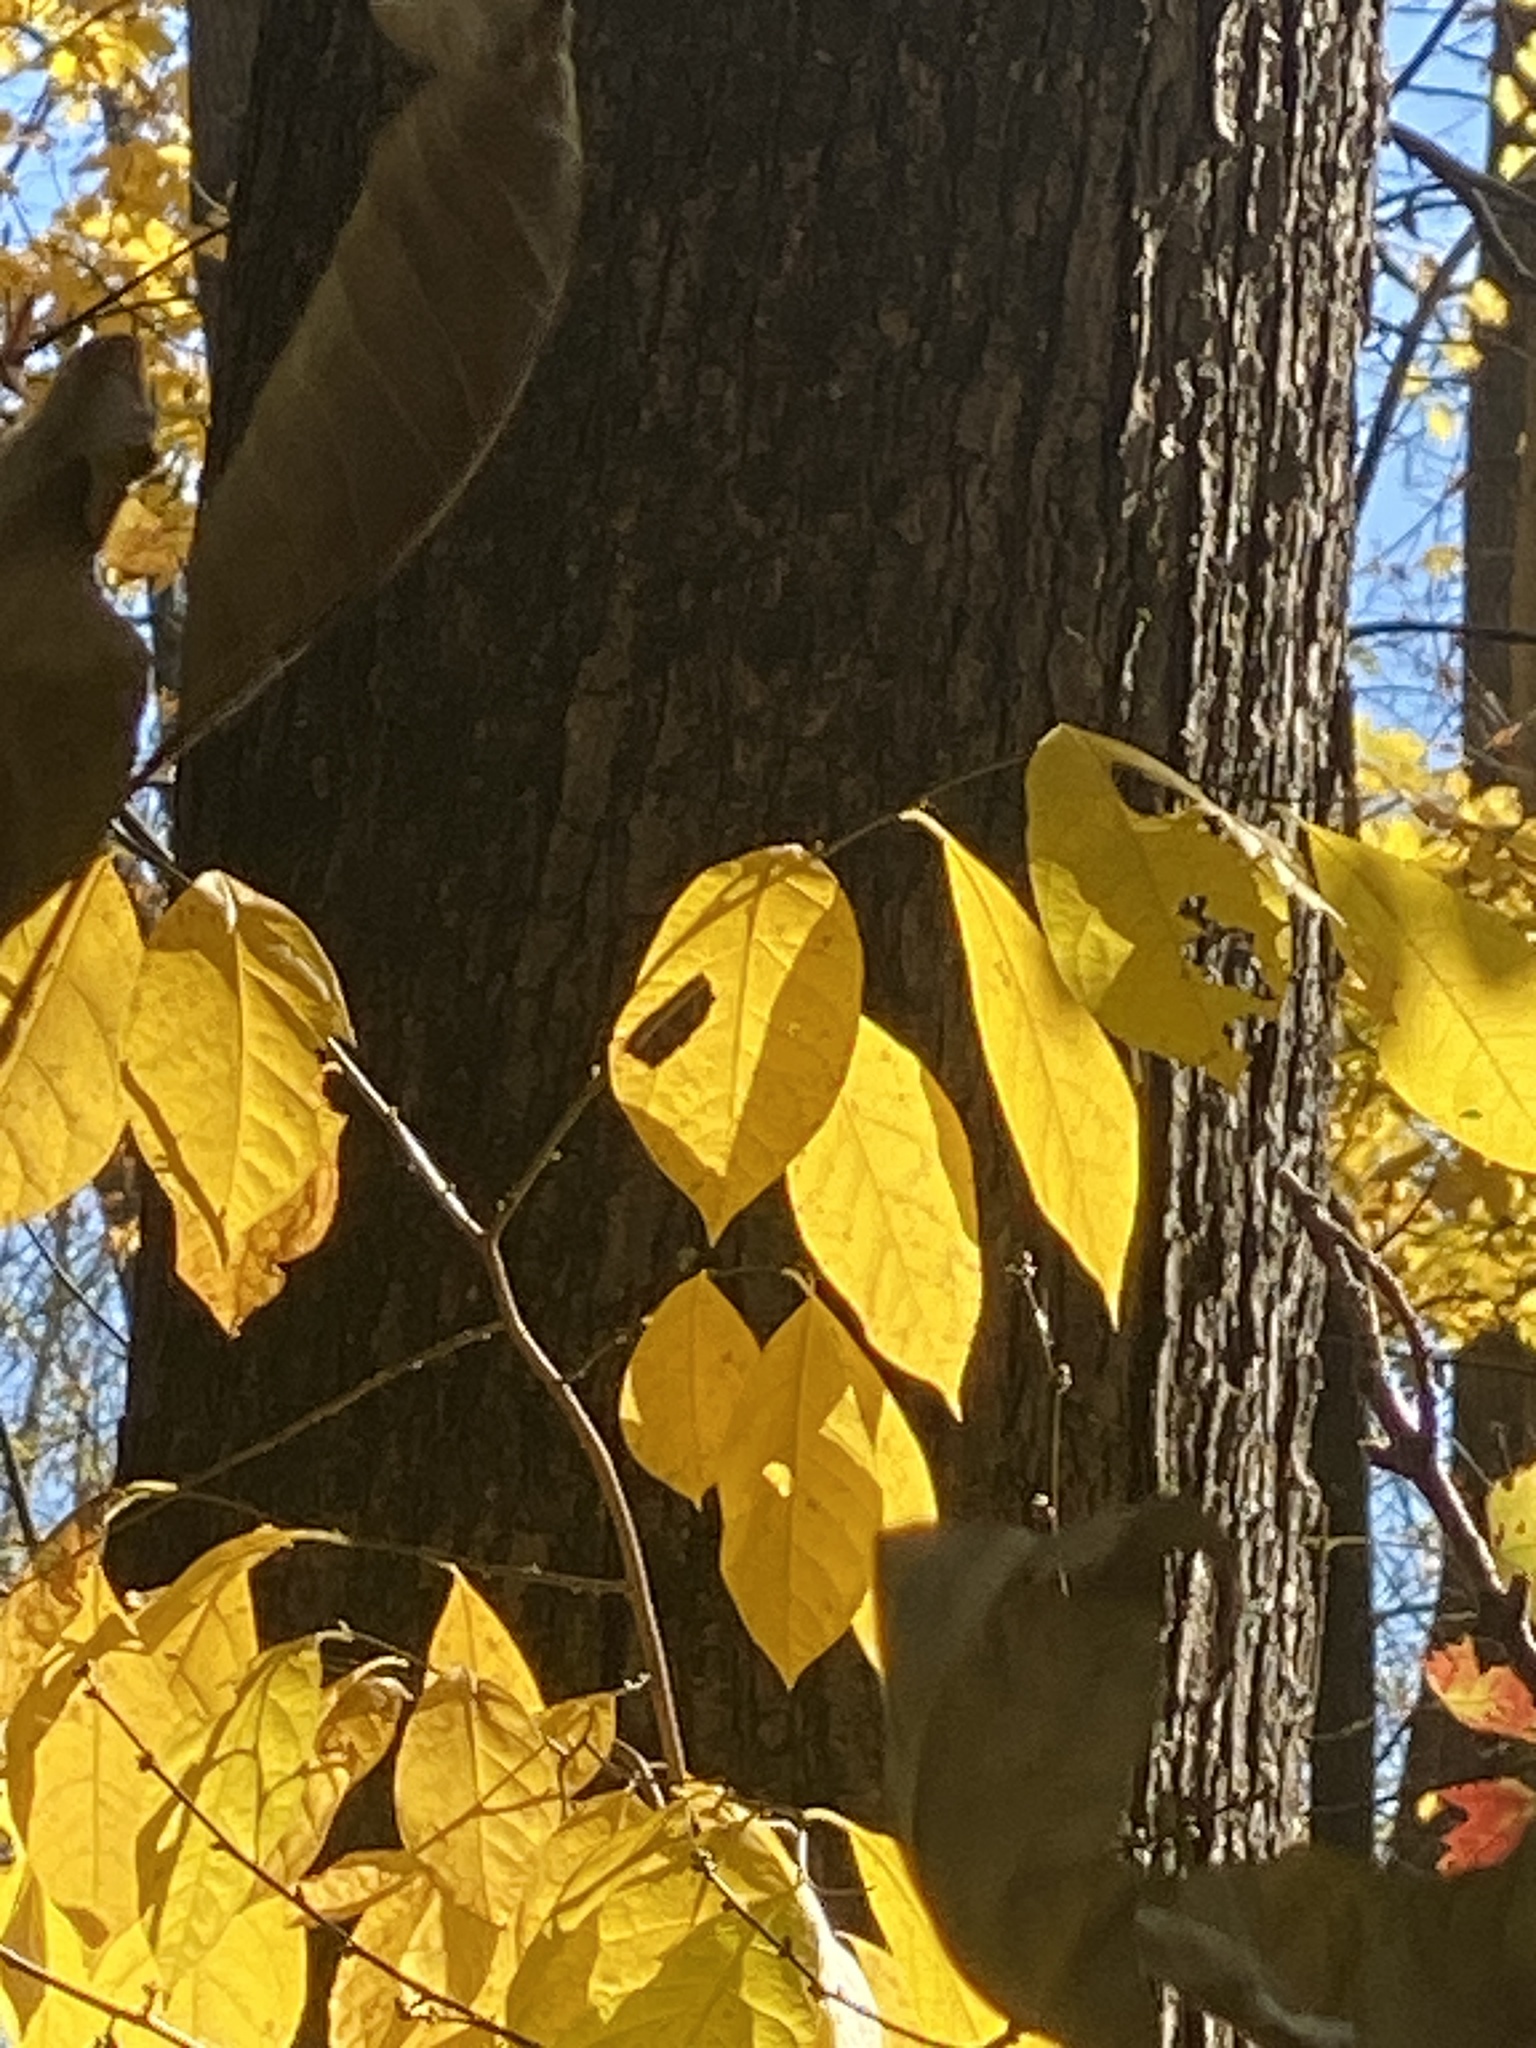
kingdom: Plantae
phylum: Tracheophyta
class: Magnoliopsida
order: Laurales
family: Lauraceae
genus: Lindera
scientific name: Lindera benzoin
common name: Spicebush
